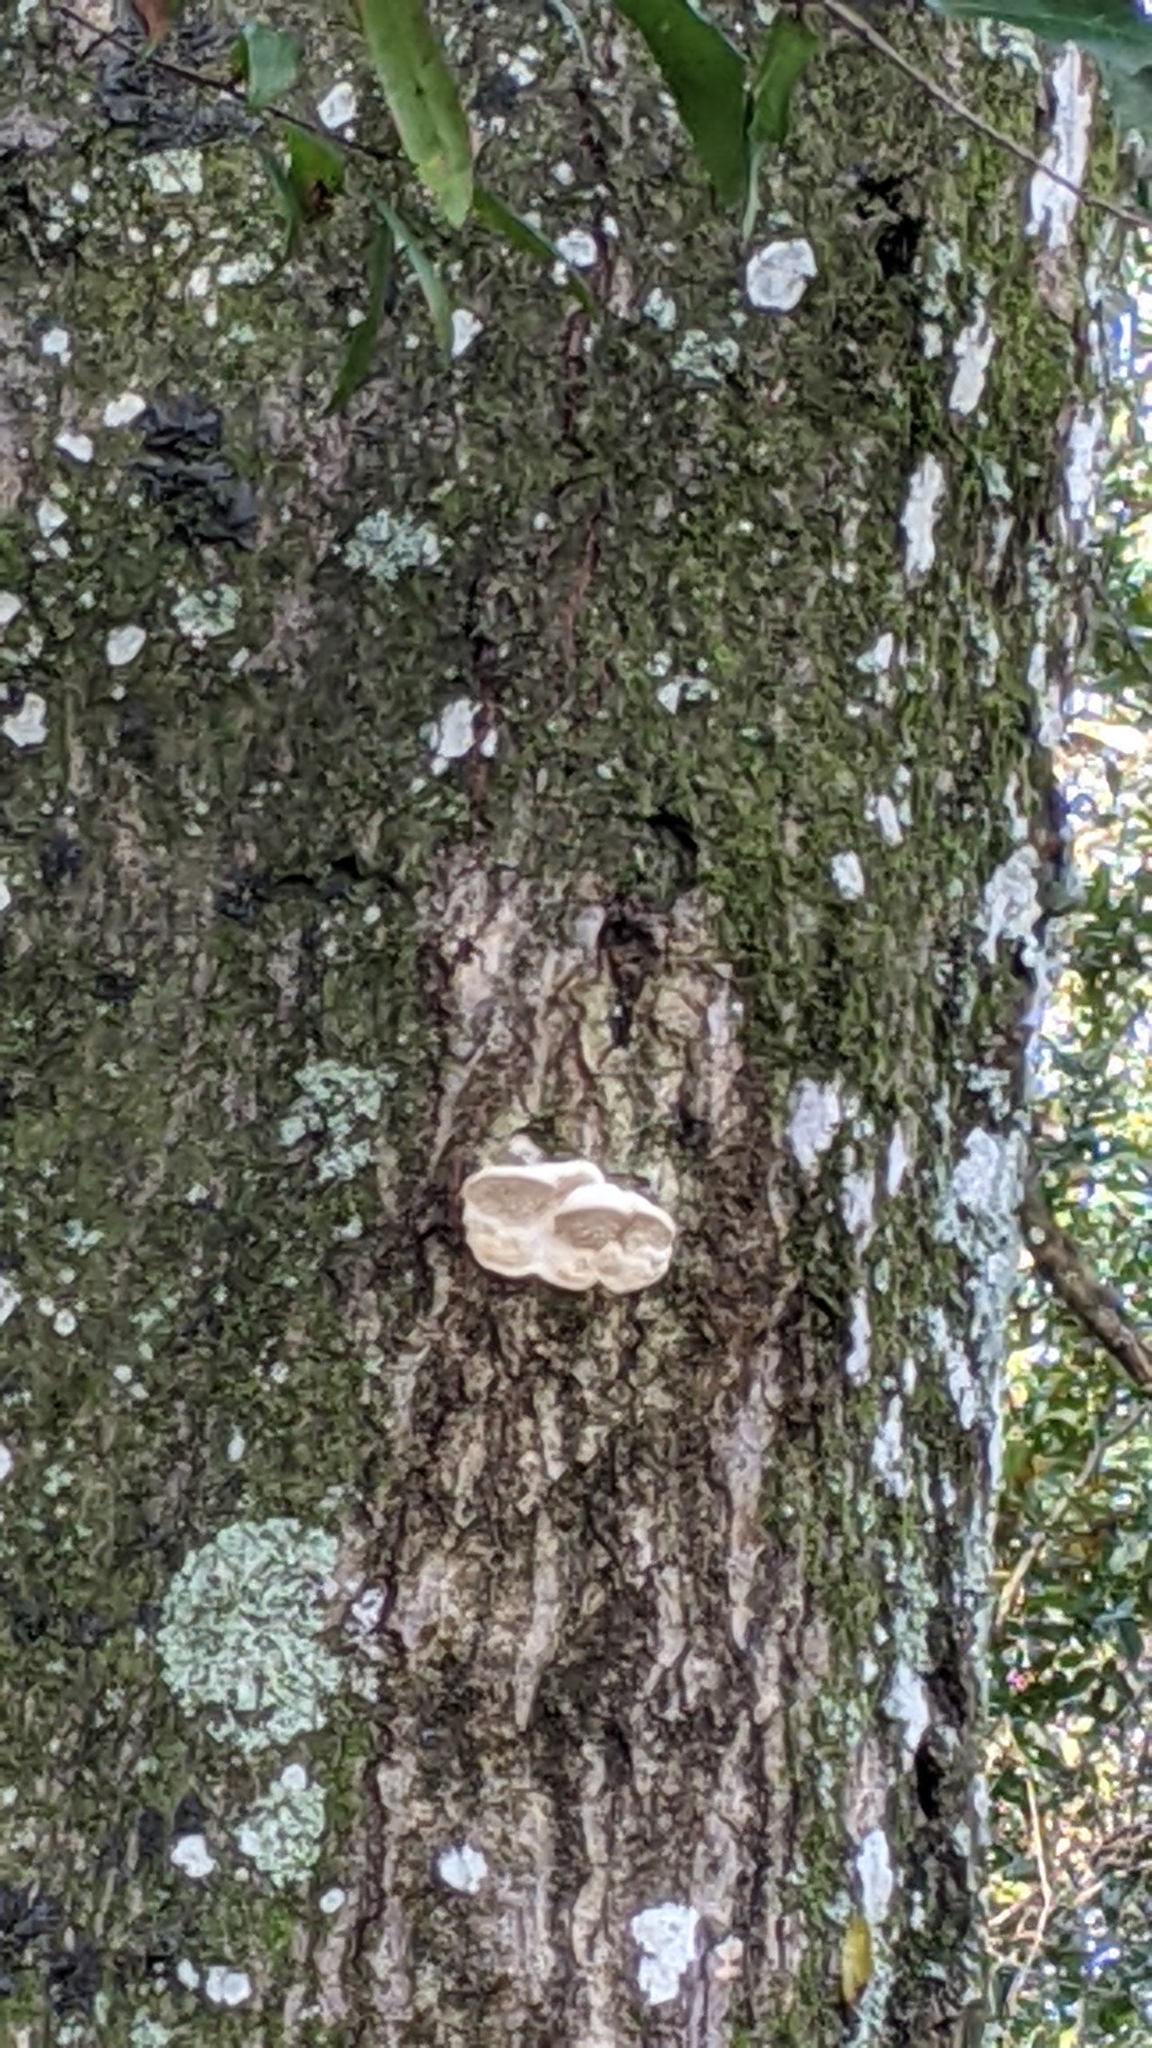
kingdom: Fungi
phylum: Basidiomycota
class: Agaricomycetes
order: Polyporales
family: Meruliaceae
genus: Irpiciporus
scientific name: Irpiciporus pachyodon
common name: Marshmallow polypore
